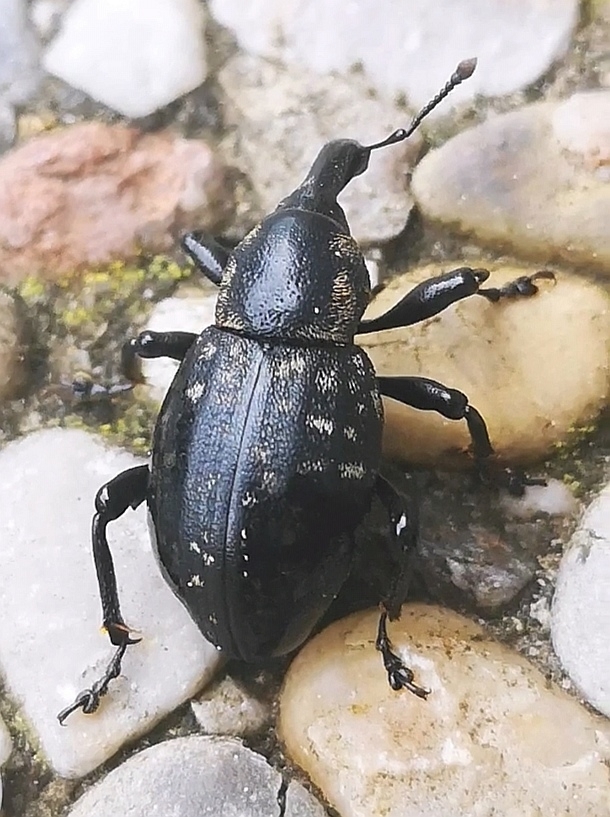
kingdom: Animalia
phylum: Arthropoda
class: Insecta
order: Coleoptera
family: Curculionidae
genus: Liparus
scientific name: Liparus germanus
